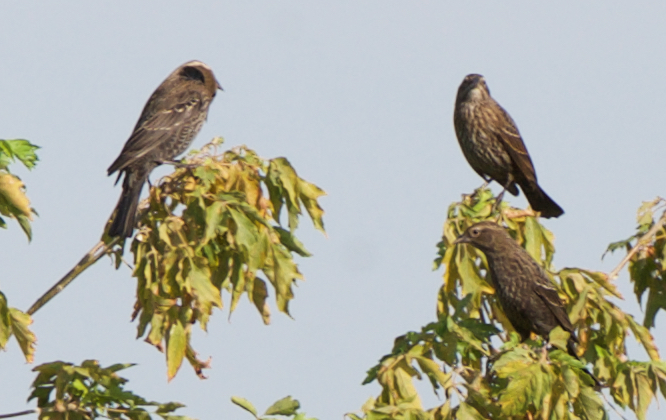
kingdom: Animalia
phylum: Chordata
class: Aves
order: Passeriformes
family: Icteridae
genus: Agelaius
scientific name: Agelaius phoeniceus
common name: Red-winged blackbird
